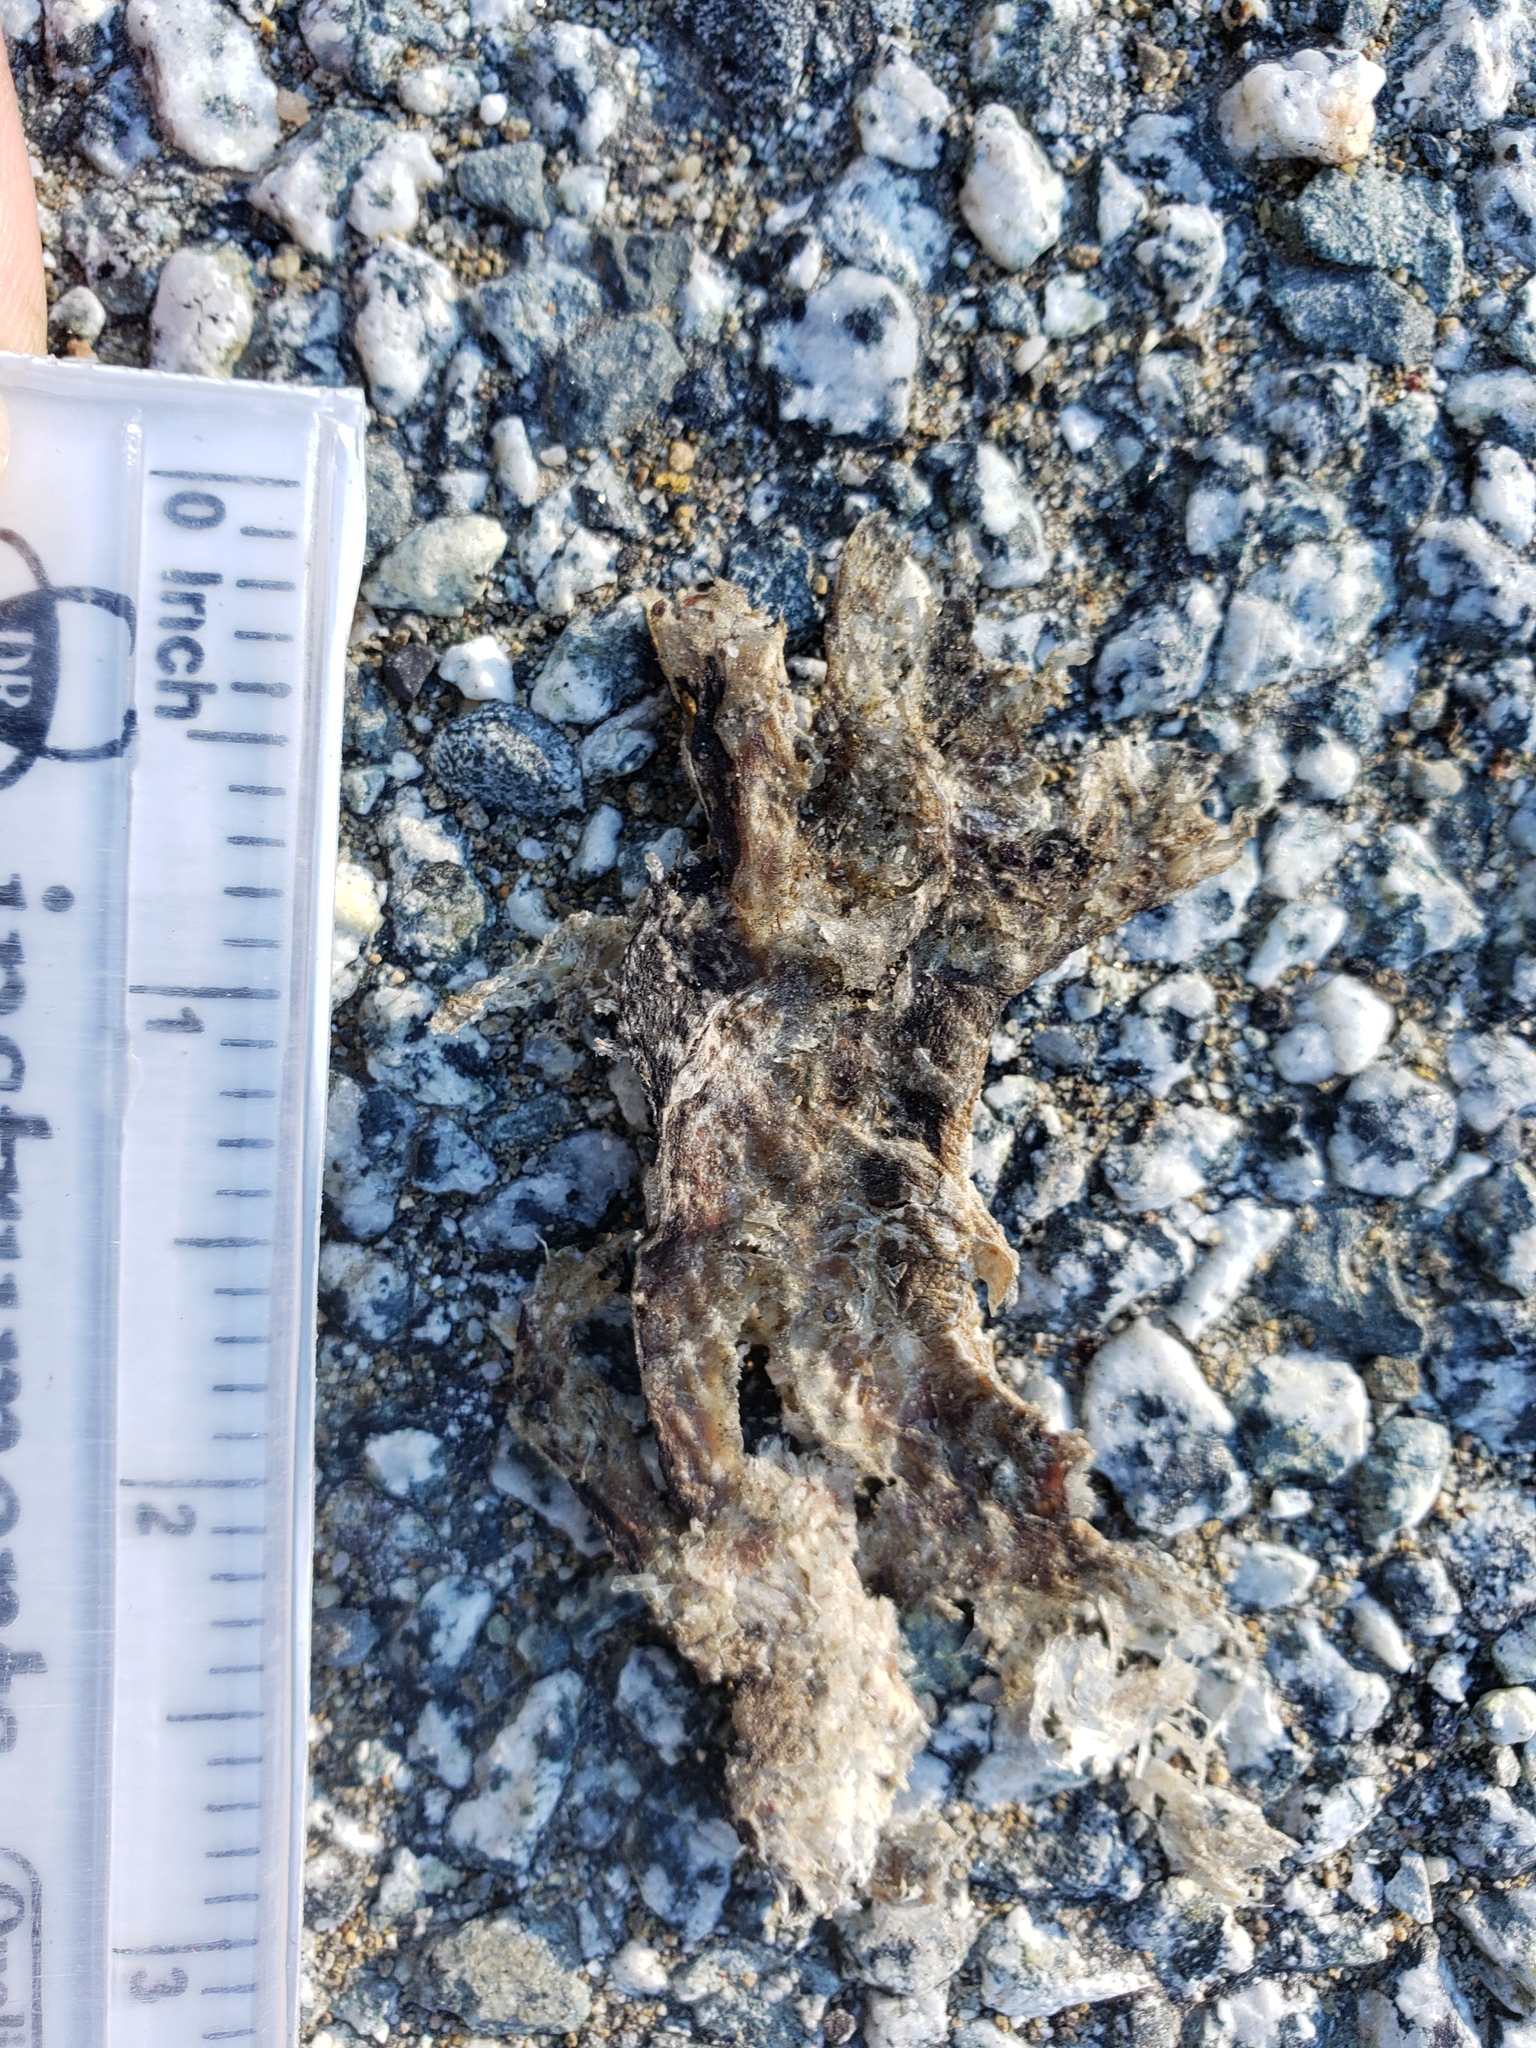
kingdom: Animalia
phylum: Chordata
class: Amphibia
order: Caudata
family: Salamandridae
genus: Taricha
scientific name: Taricha
